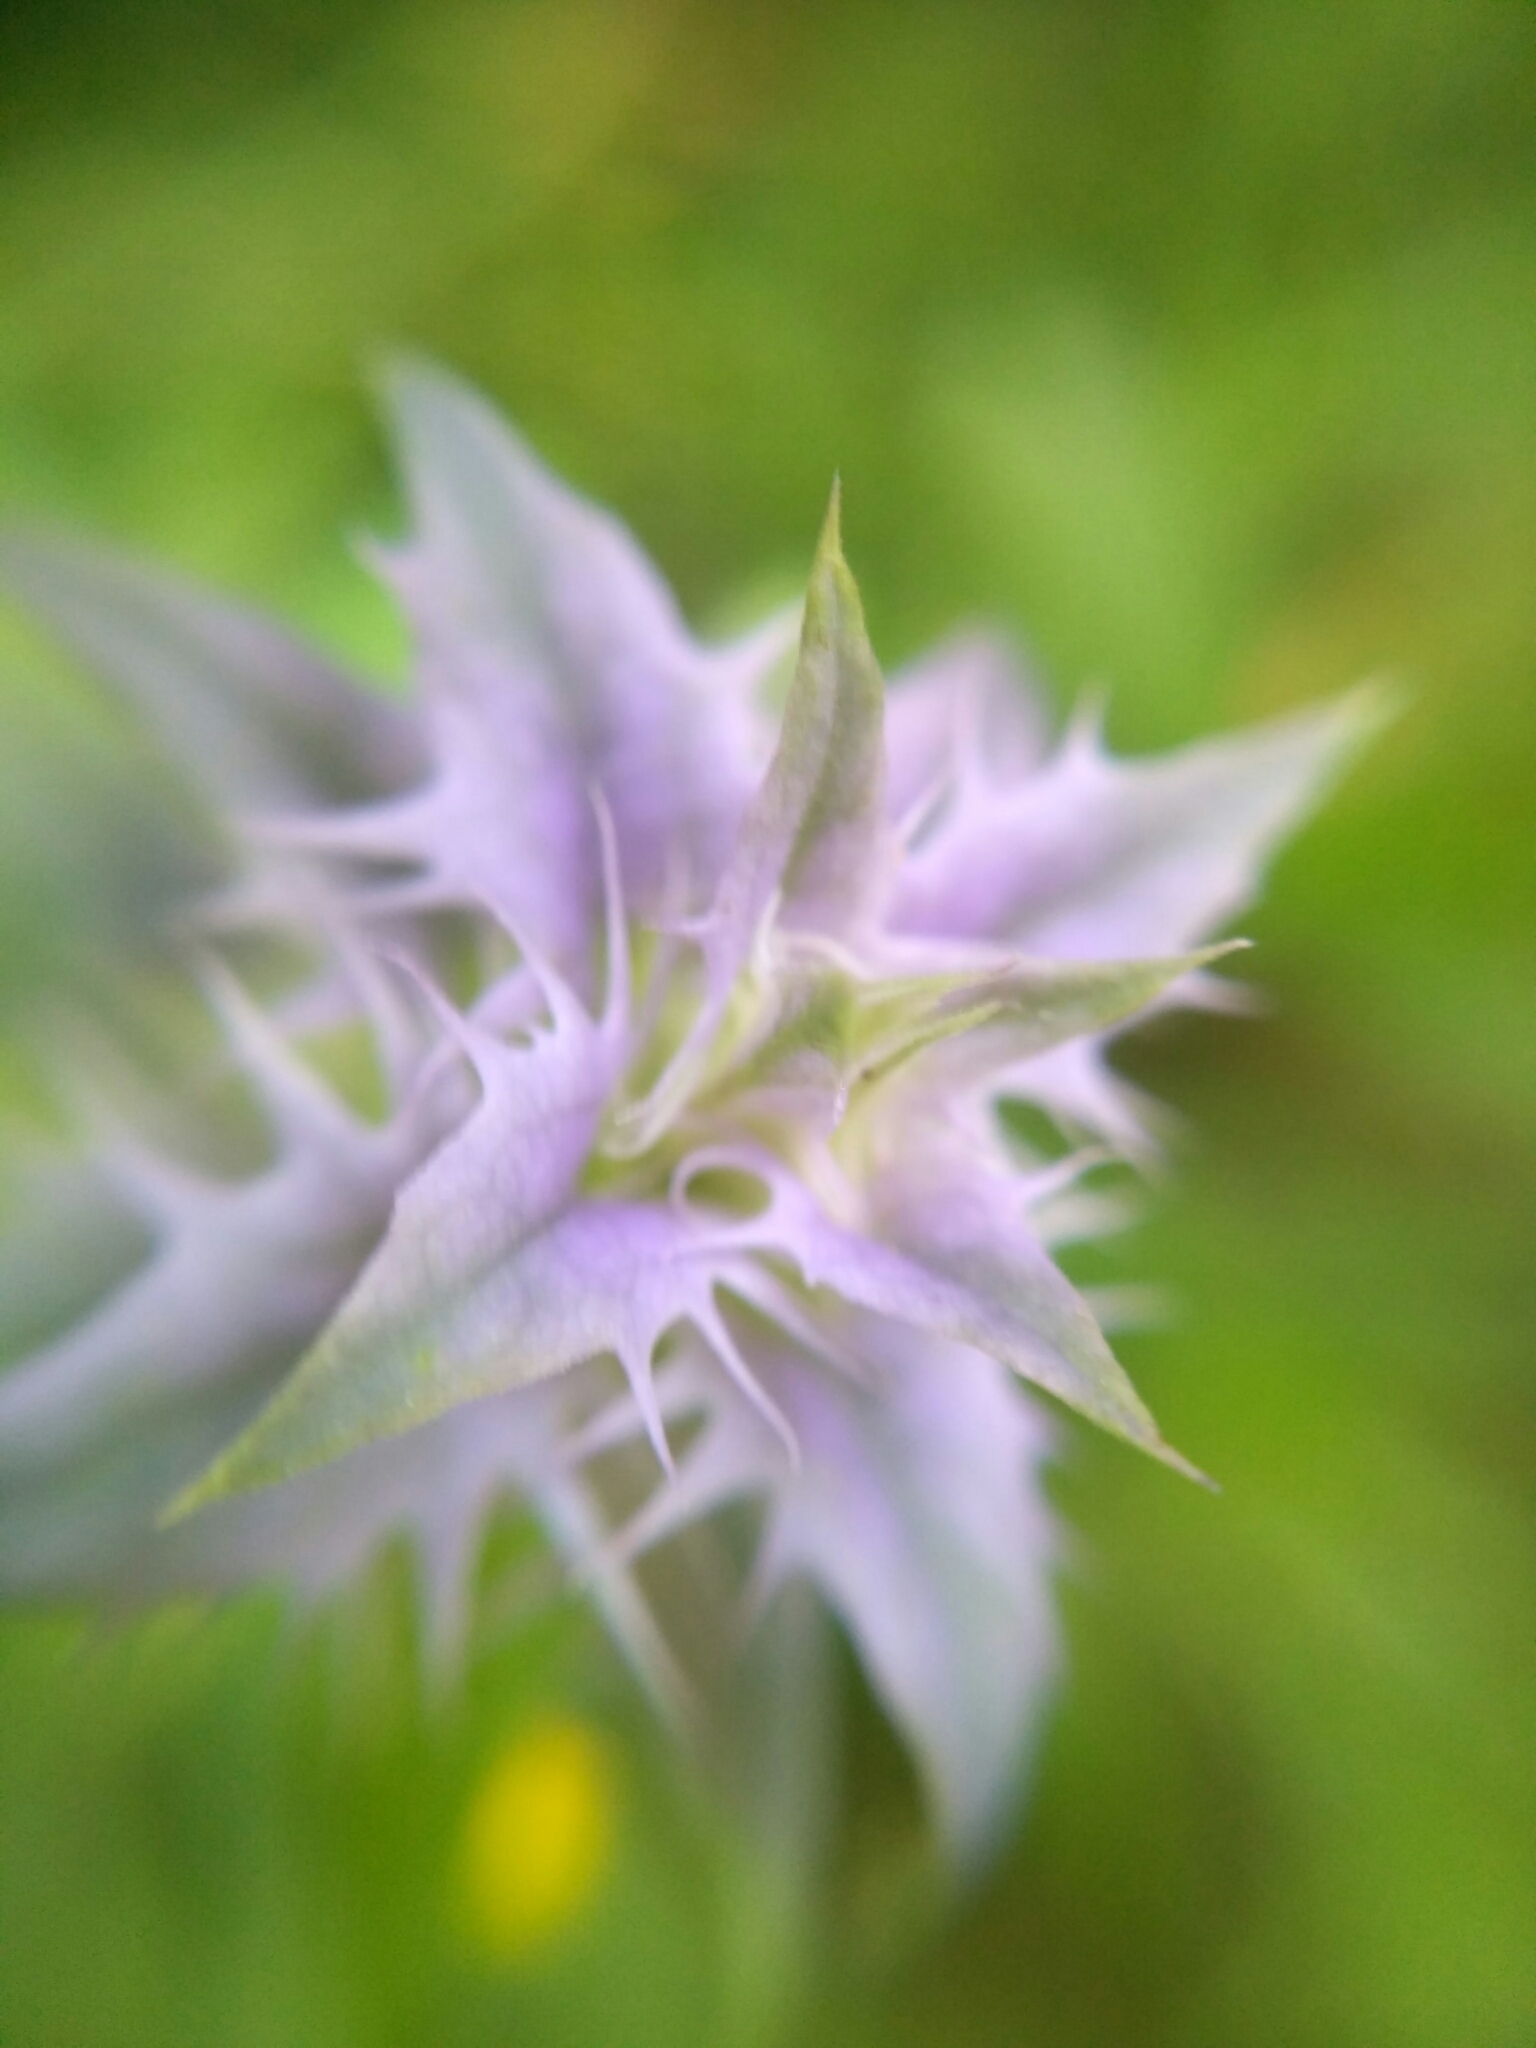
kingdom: Plantae
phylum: Tracheophyta
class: Magnoliopsida
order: Lamiales
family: Orobanchaceae
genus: Melampyrum
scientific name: Melampyrum nemorosum
